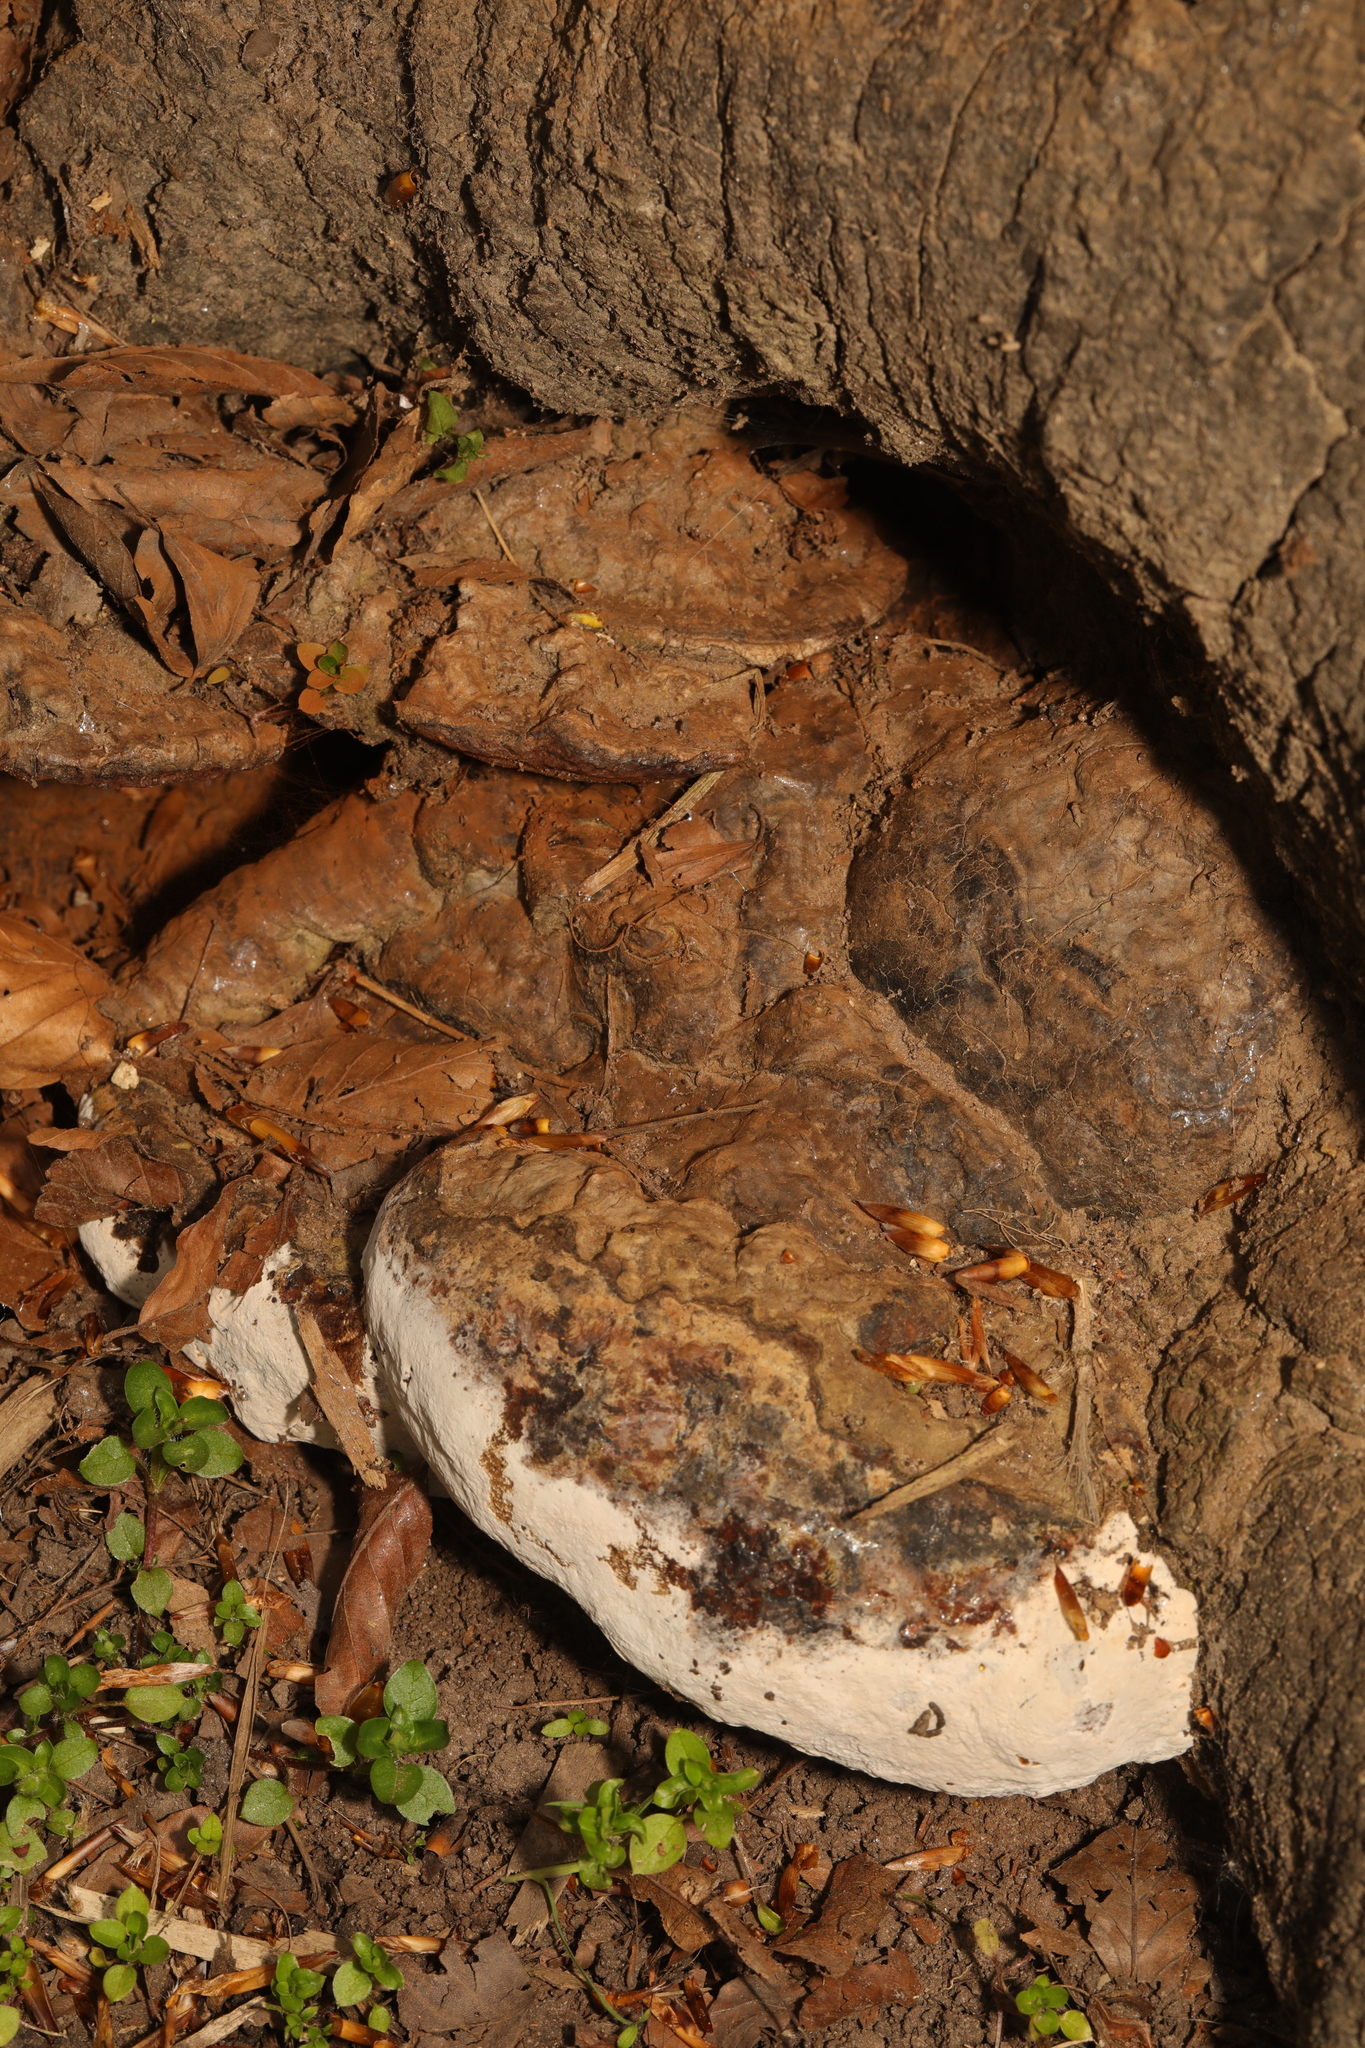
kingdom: Fungi
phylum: Basidiomycota
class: Agaricomycetes
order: Polyporales
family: Polyporaceae
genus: Ganoderma
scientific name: Ganoderma applanatum
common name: Artist's bracket
